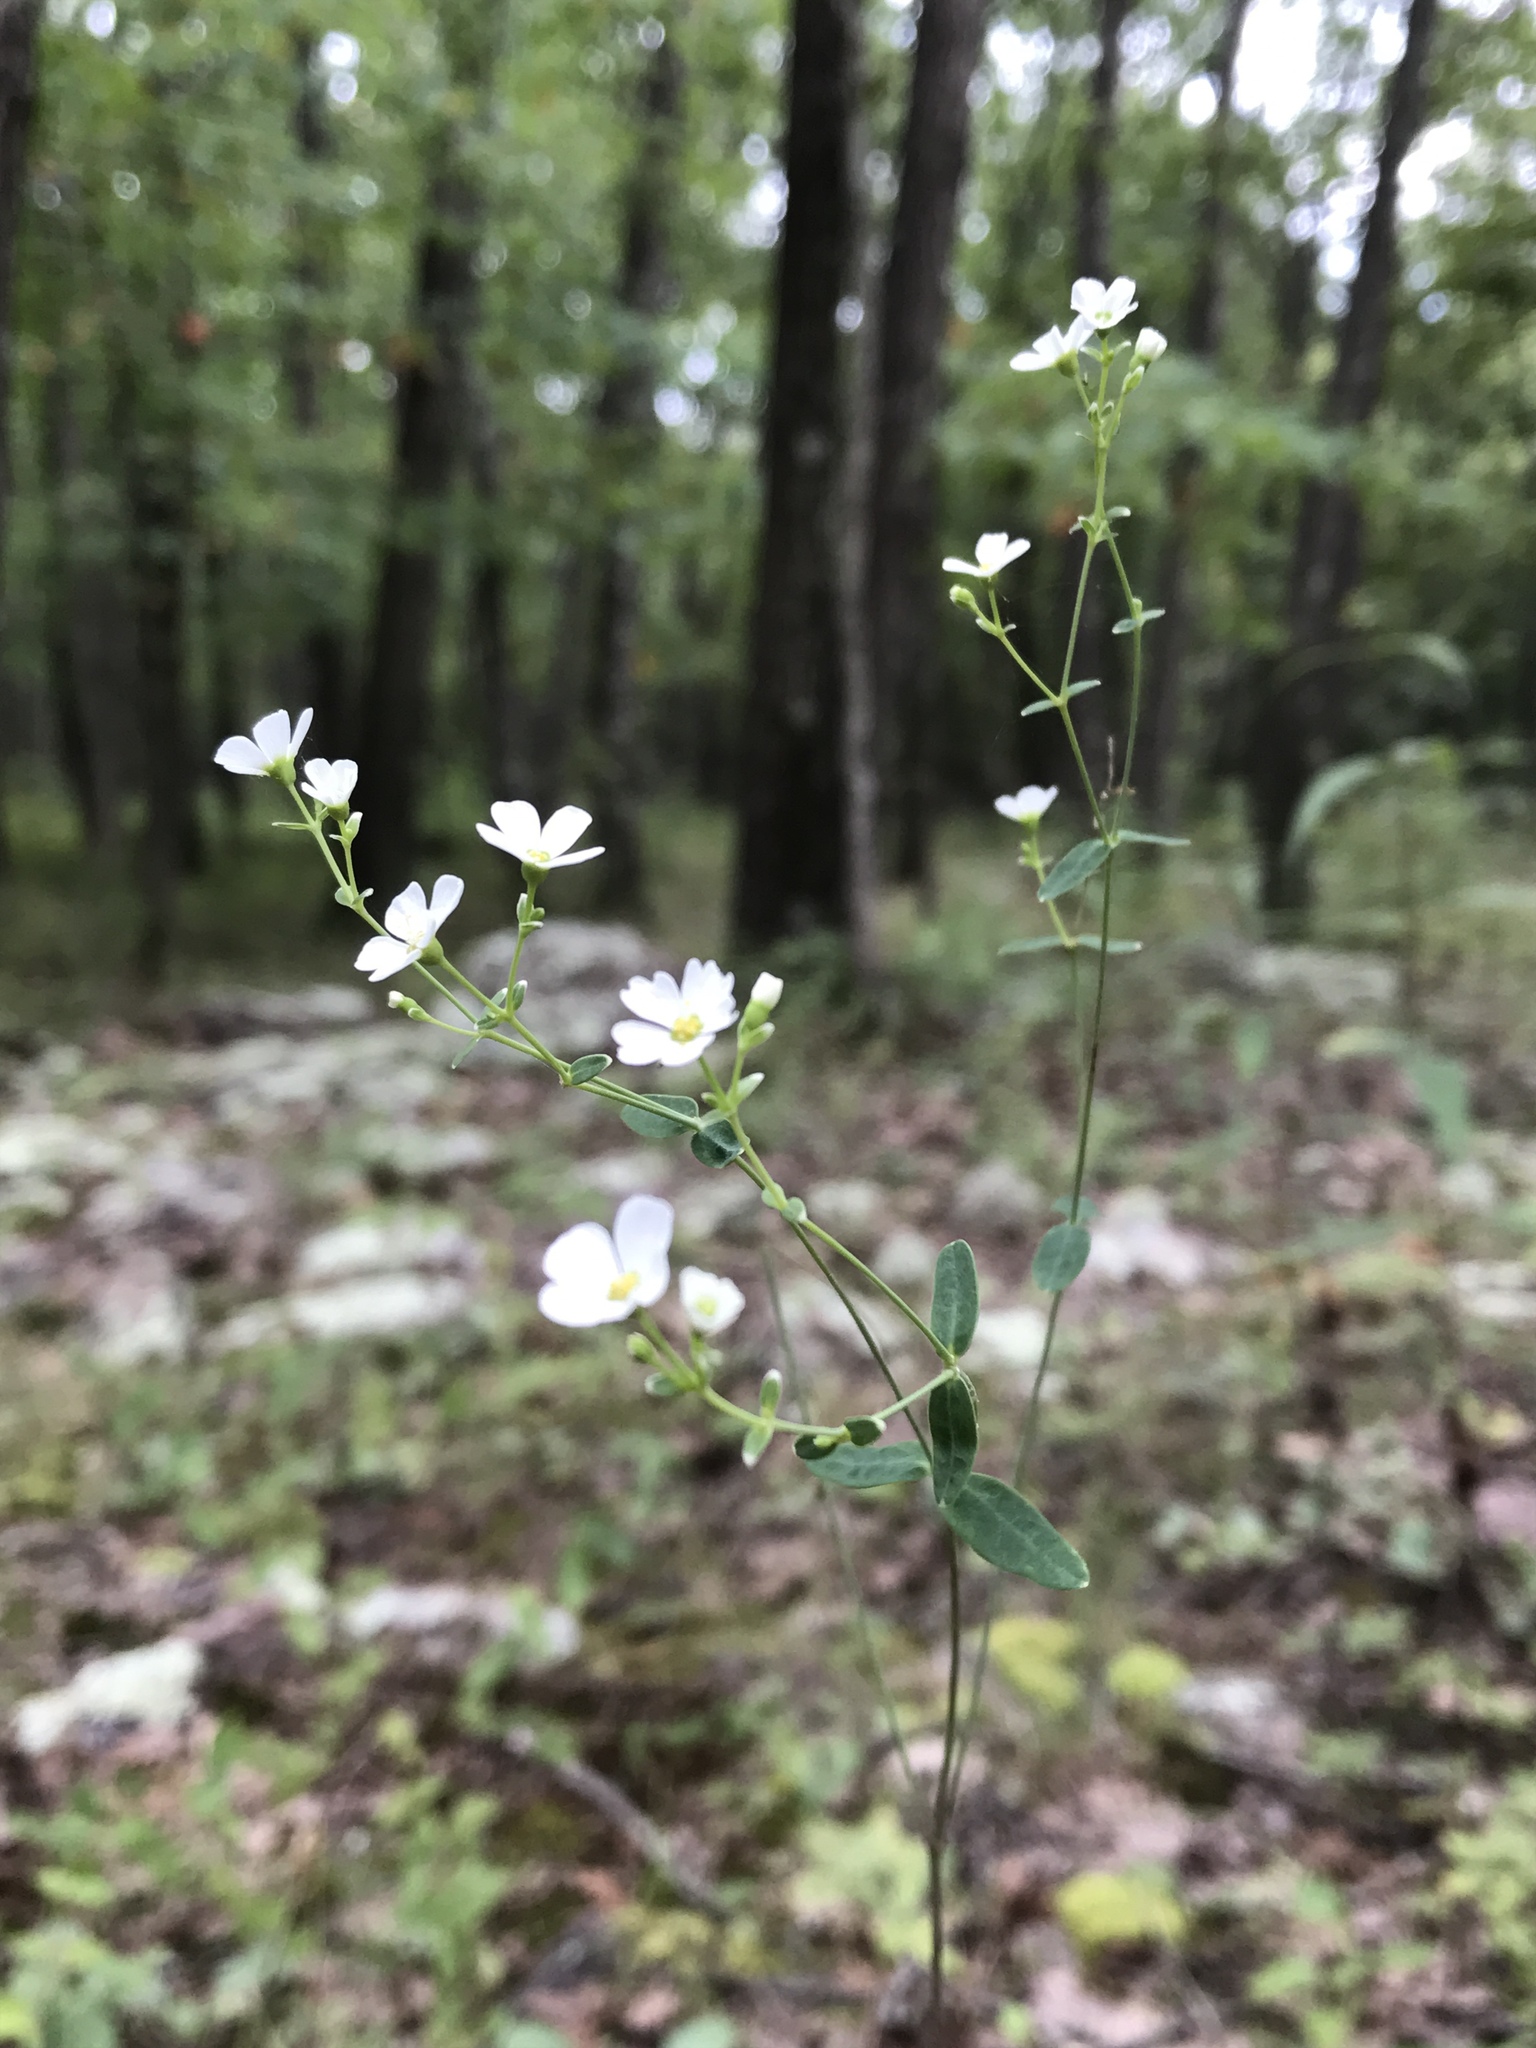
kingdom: Plantae
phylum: Tracheophyta
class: Magnoliopsida
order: Malpighiales
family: Euphorbiaceae
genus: Euphorbia
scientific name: Euphorbia corollata
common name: Flowering spurge
